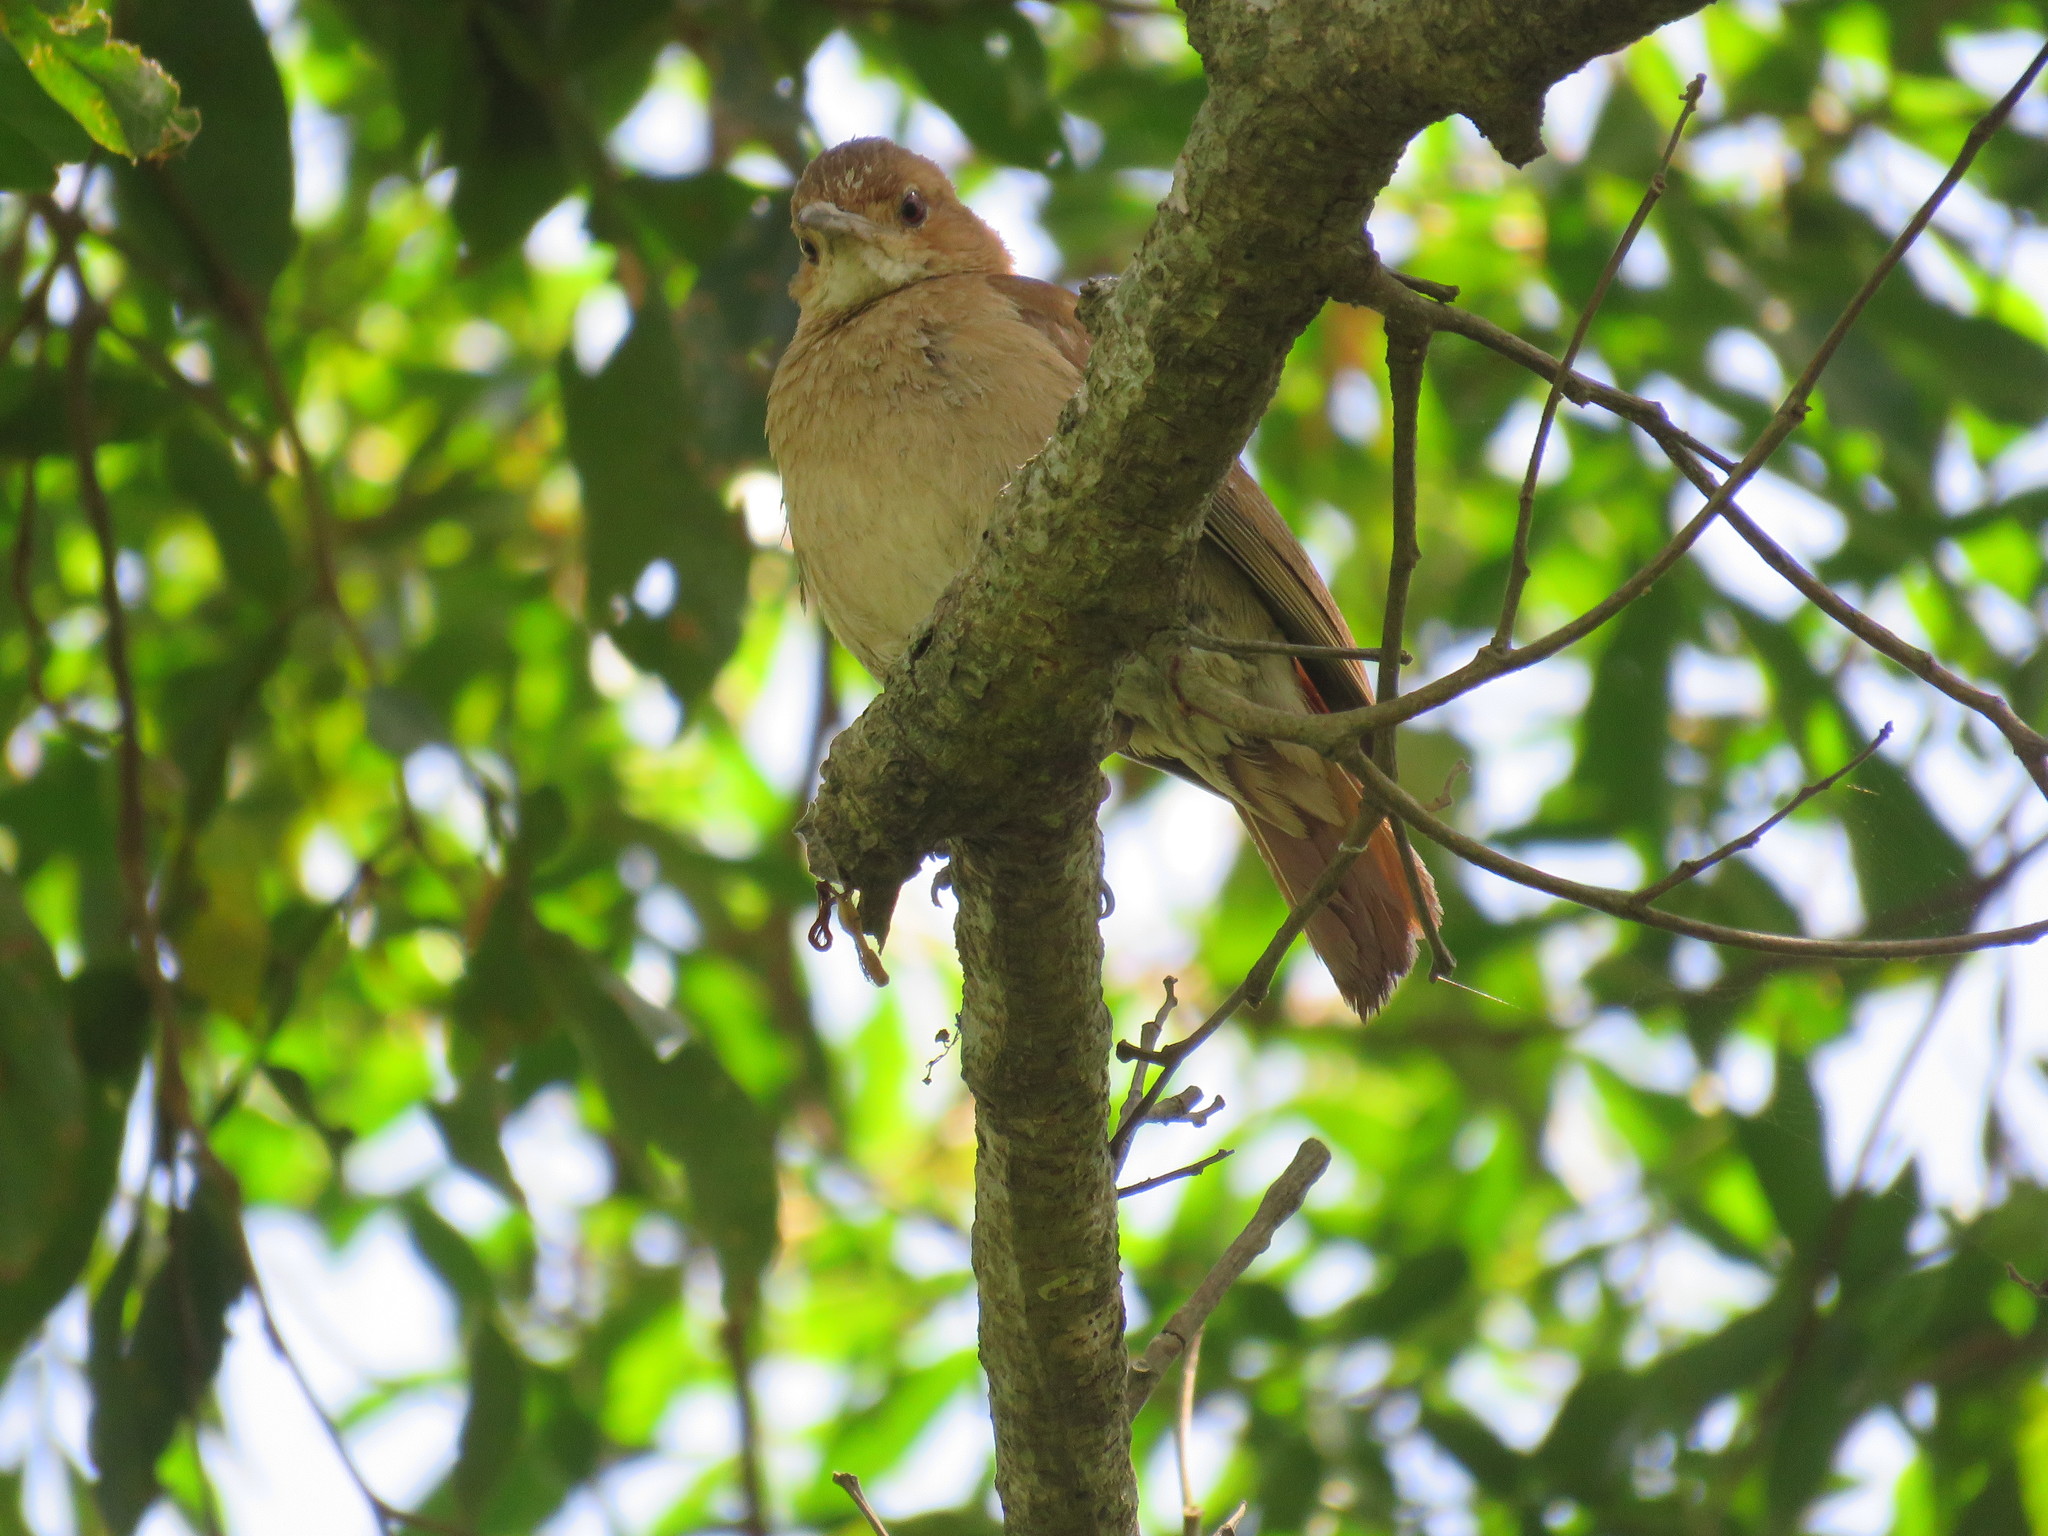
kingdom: Animalia
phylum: Chordata
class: Aves
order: Passeriformes
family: Furnariidae
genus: Furnarius
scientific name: Furnarius rufus
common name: Rufous hornero
